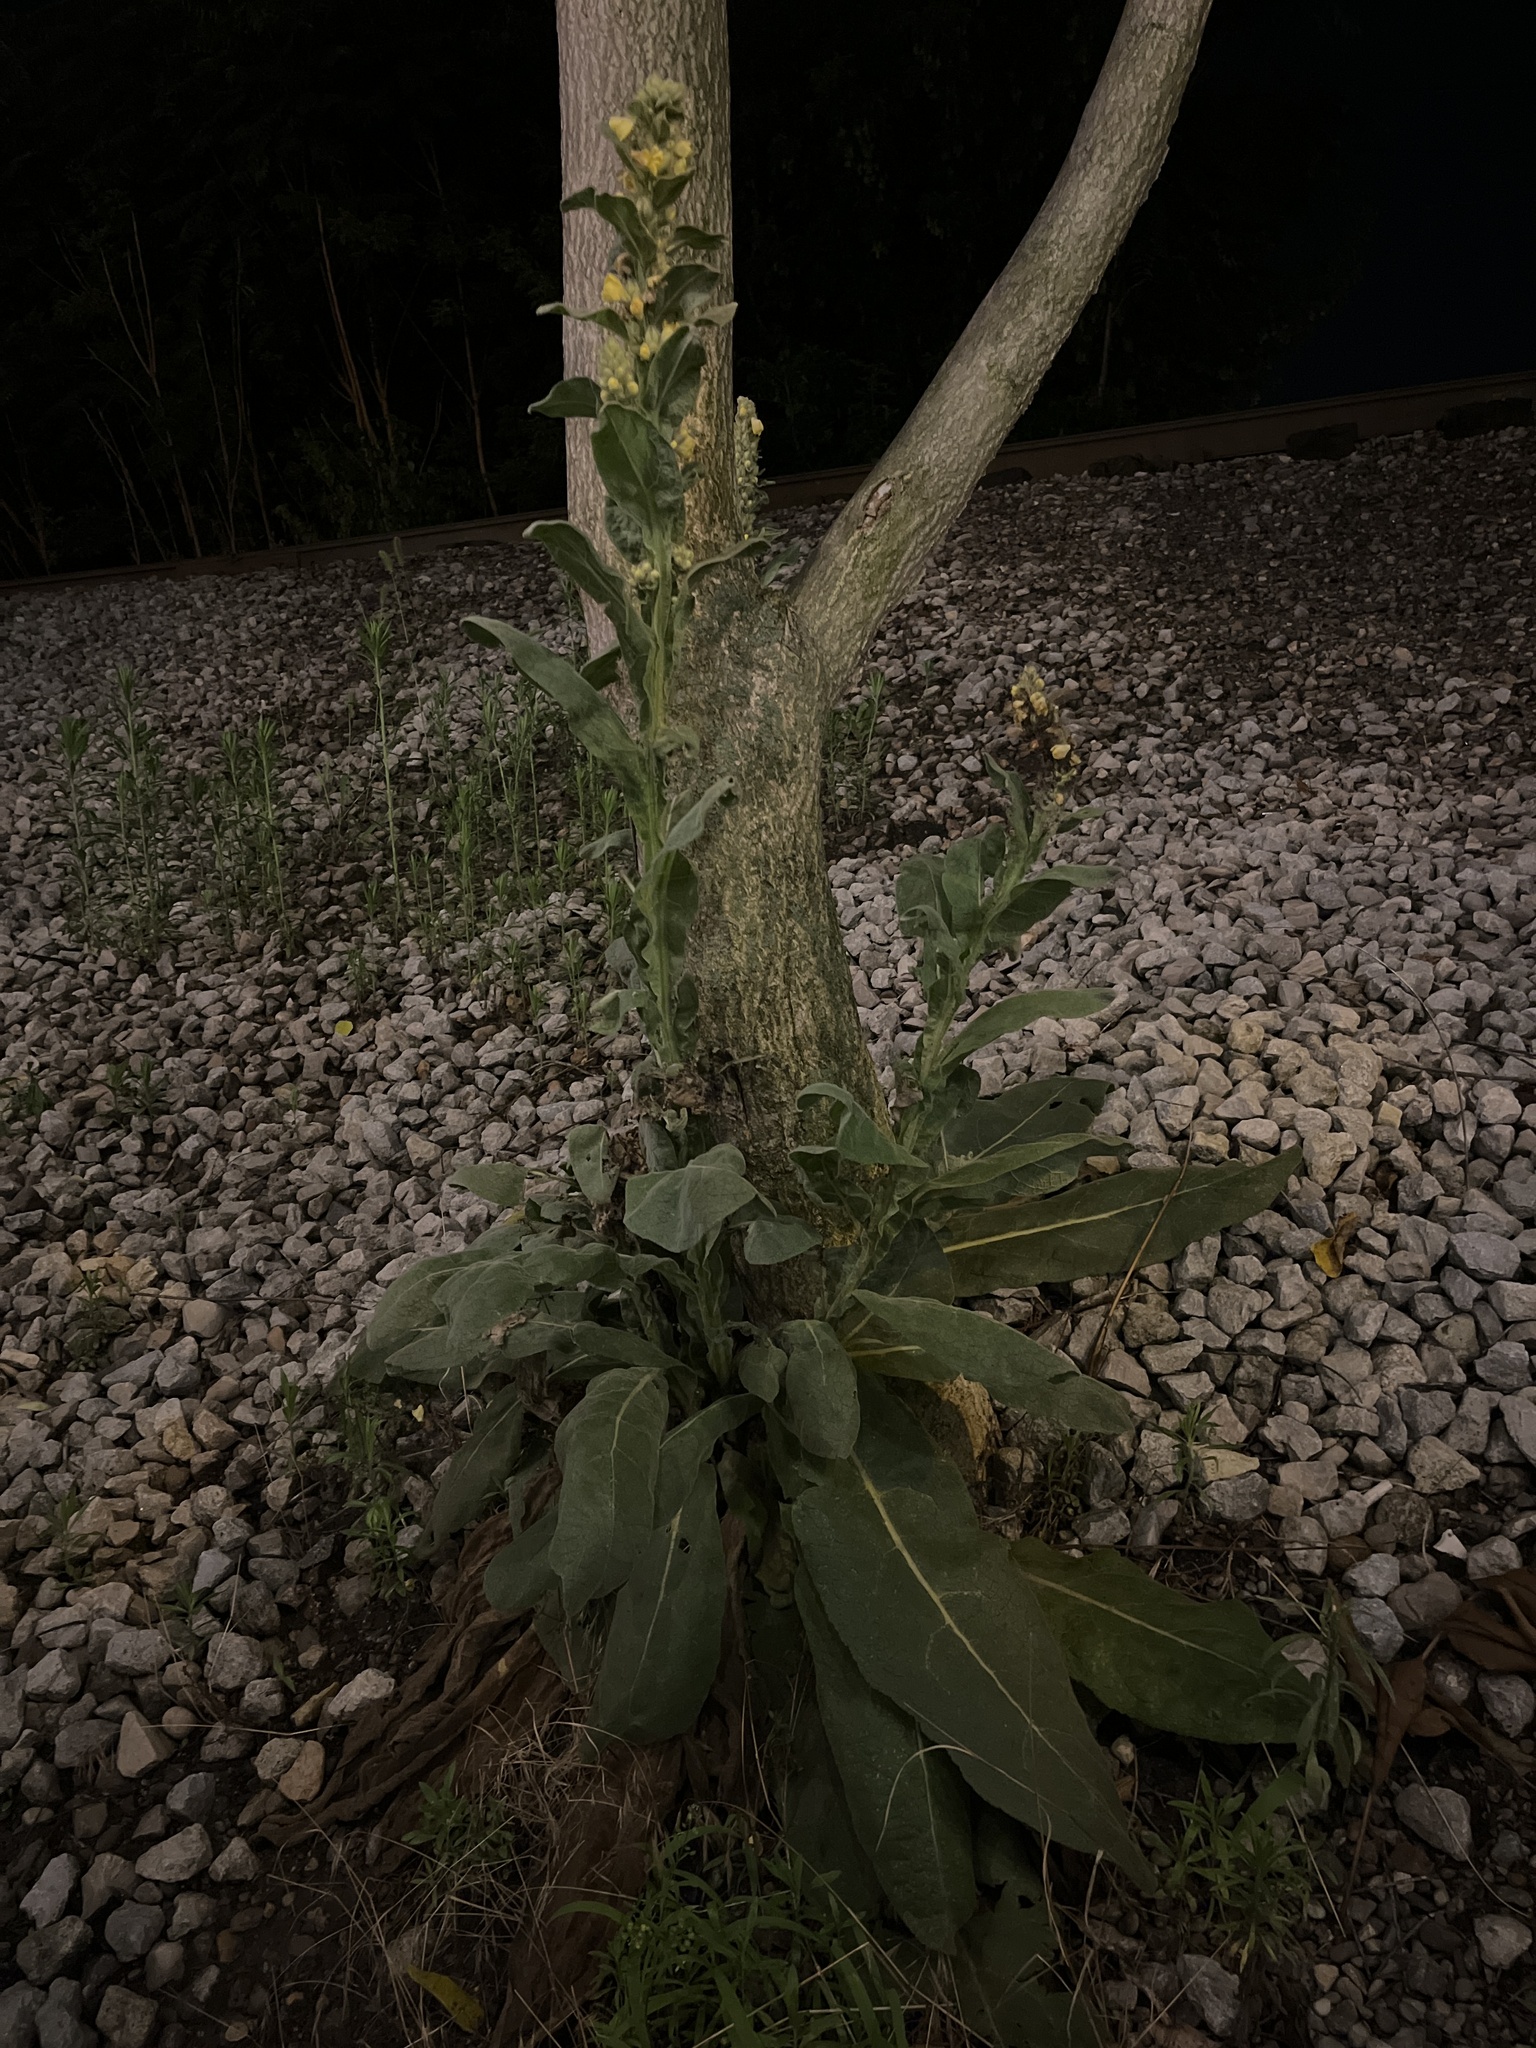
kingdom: Plantae
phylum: Tracheophyta
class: Magnoliopsida
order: Lamiales
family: Scrophulariaceae
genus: Verbascum
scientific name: Verbascum thapsus
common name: Common mullein
